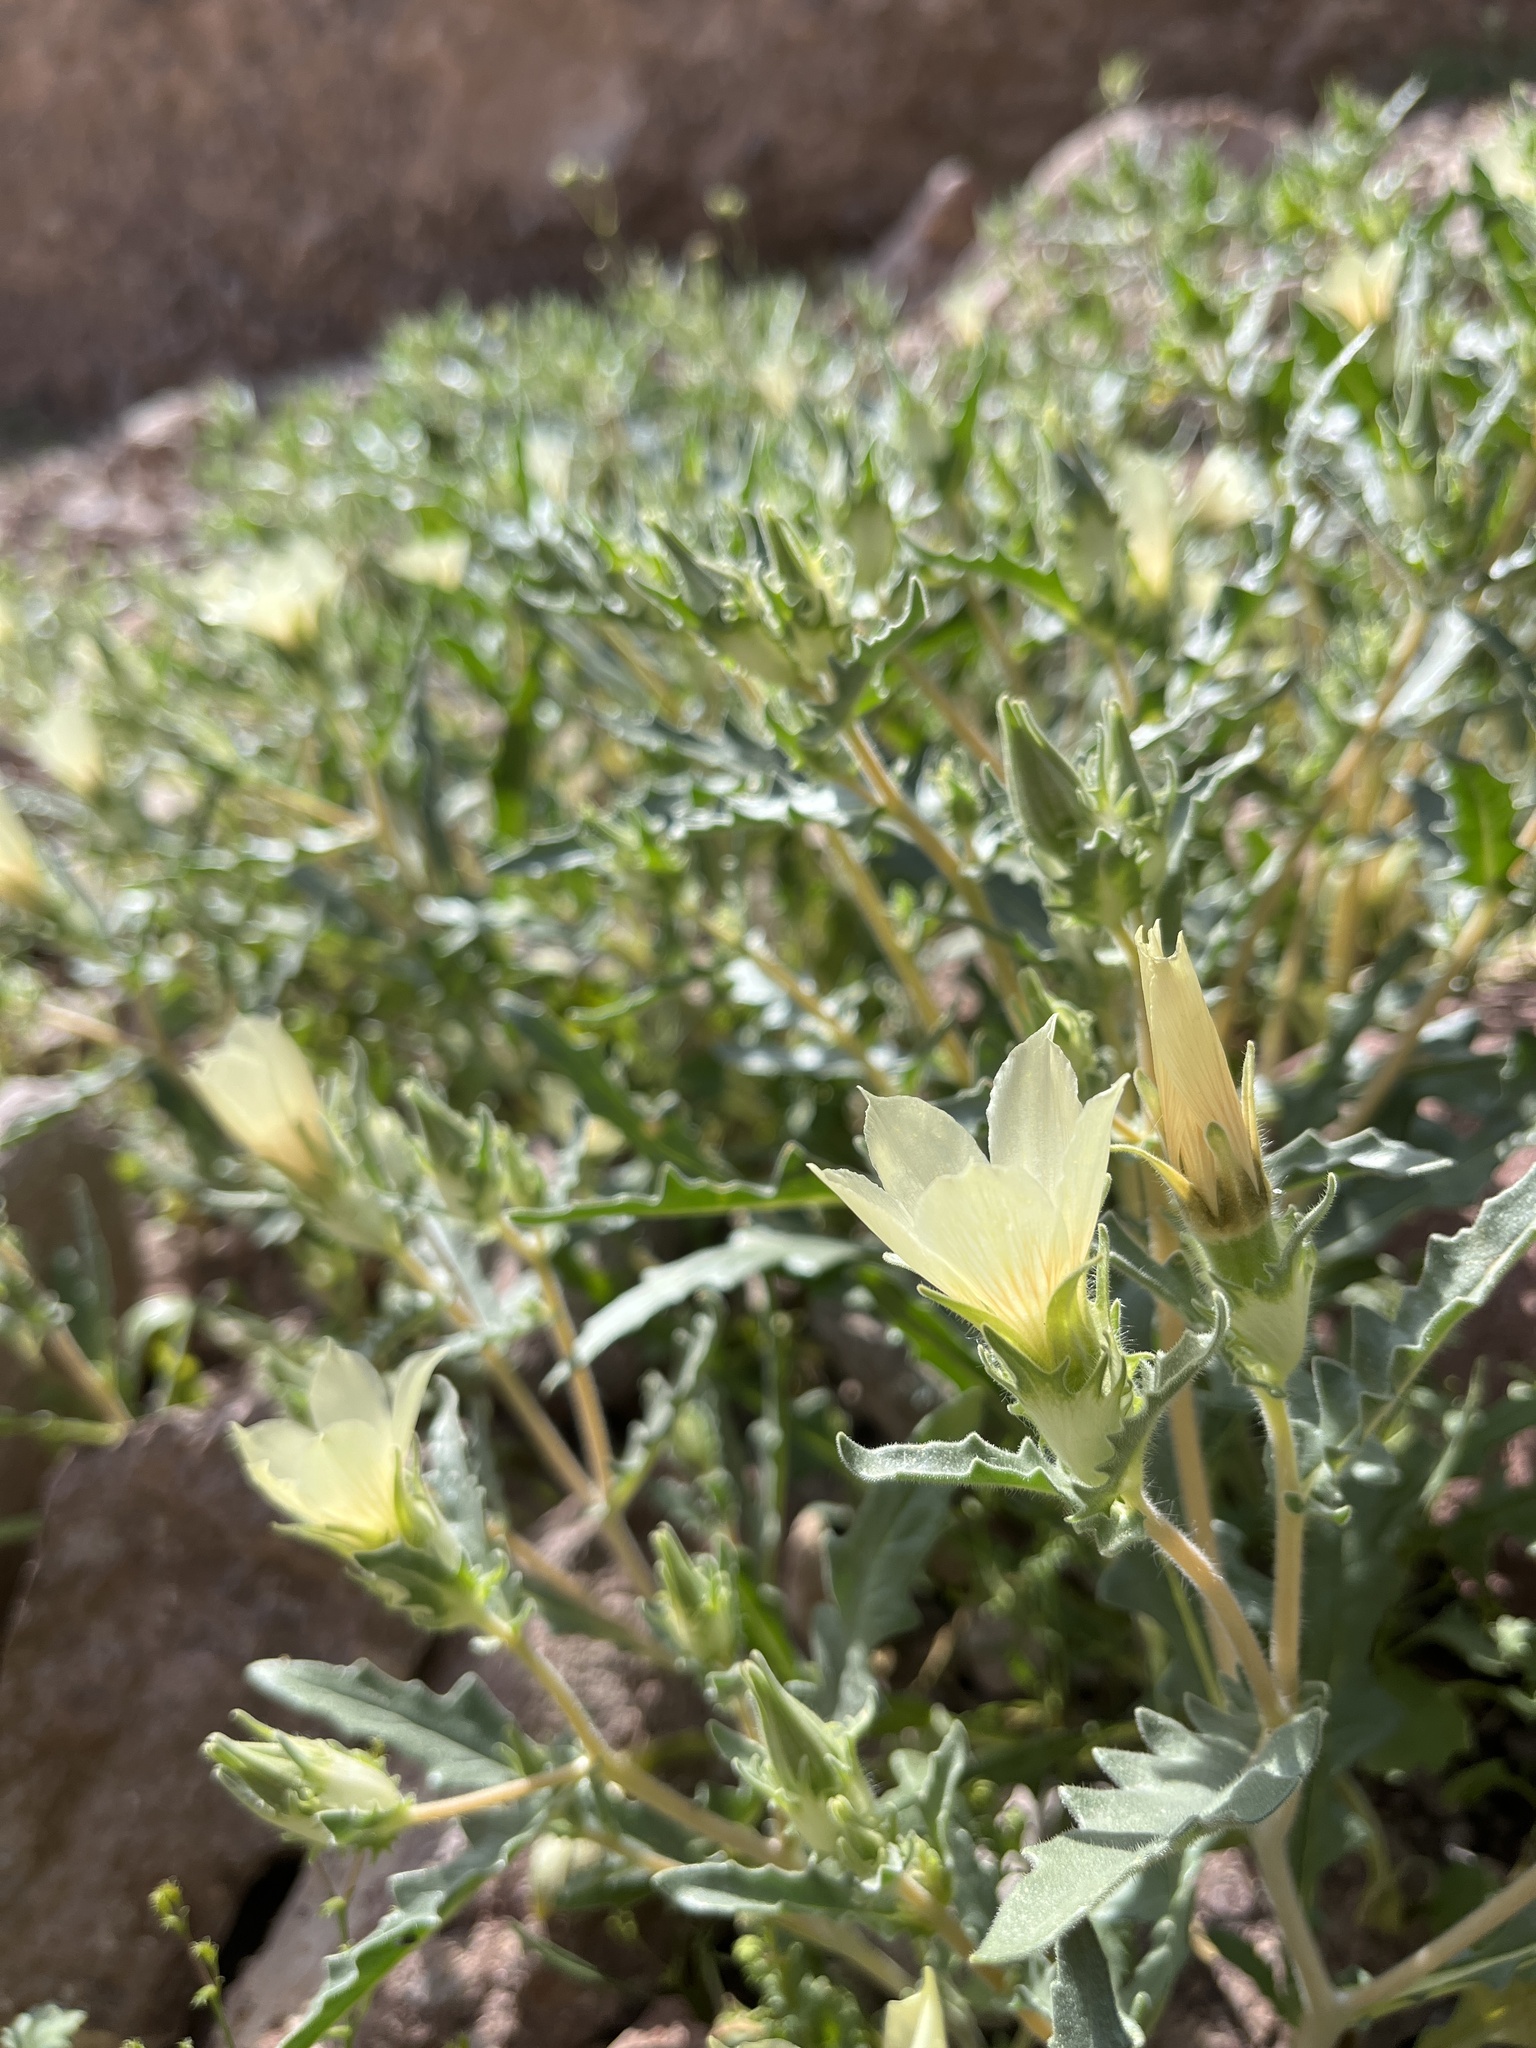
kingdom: Plantae
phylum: Tracheophyta
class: Magnoliopsida
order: Cornales
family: Loasaceae
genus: Mentzelia
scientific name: Mentzelia involucrata
